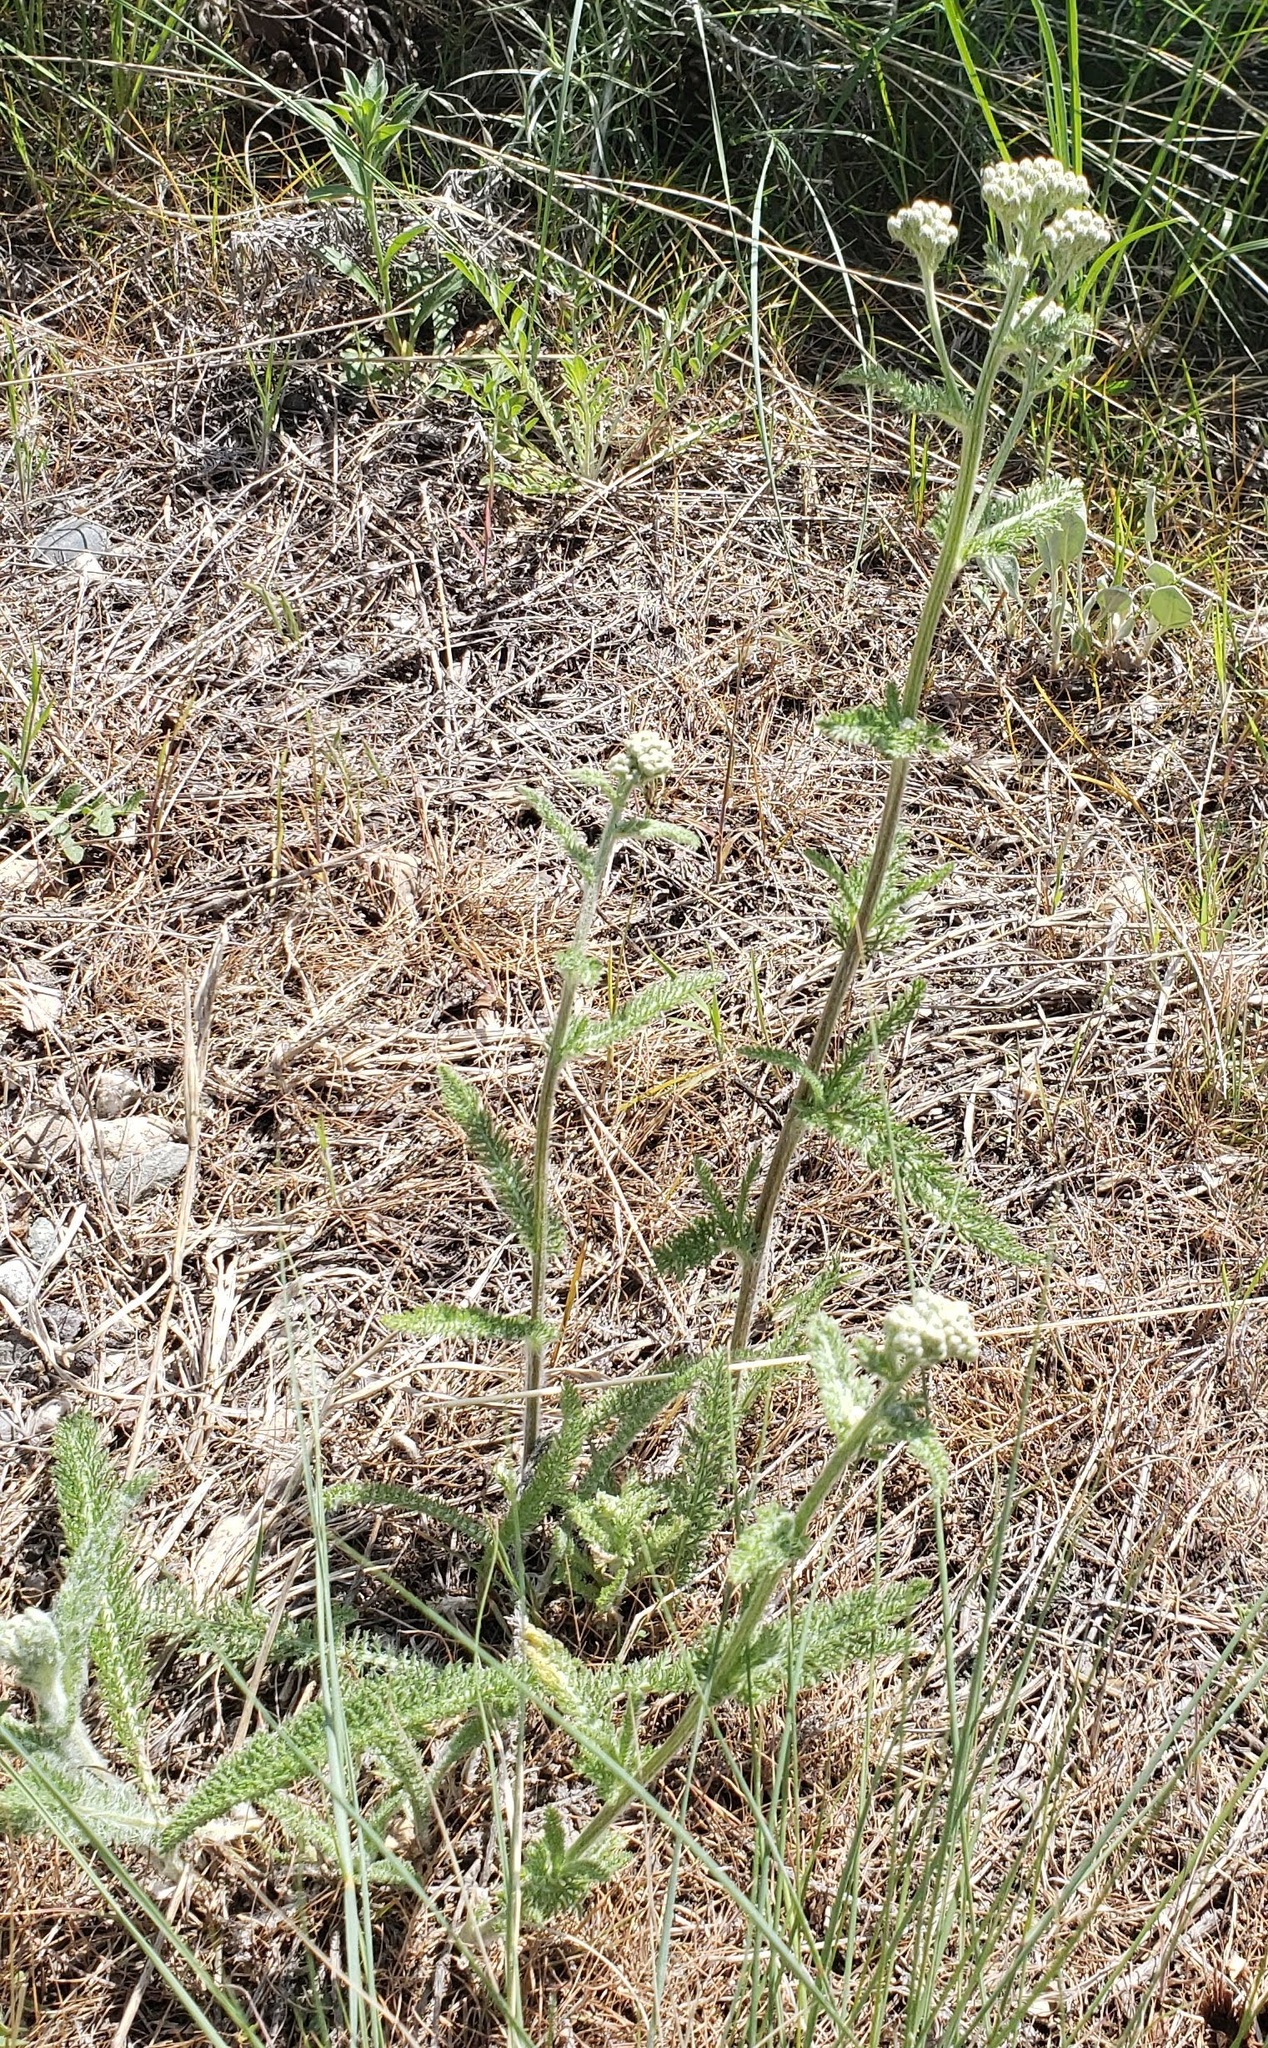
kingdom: Plantae
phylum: Tracheophyta
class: Magnoliopsida
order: Asterales
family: Asteraceae
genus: Achillea
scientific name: Achillea millefolium
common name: Yarrow
